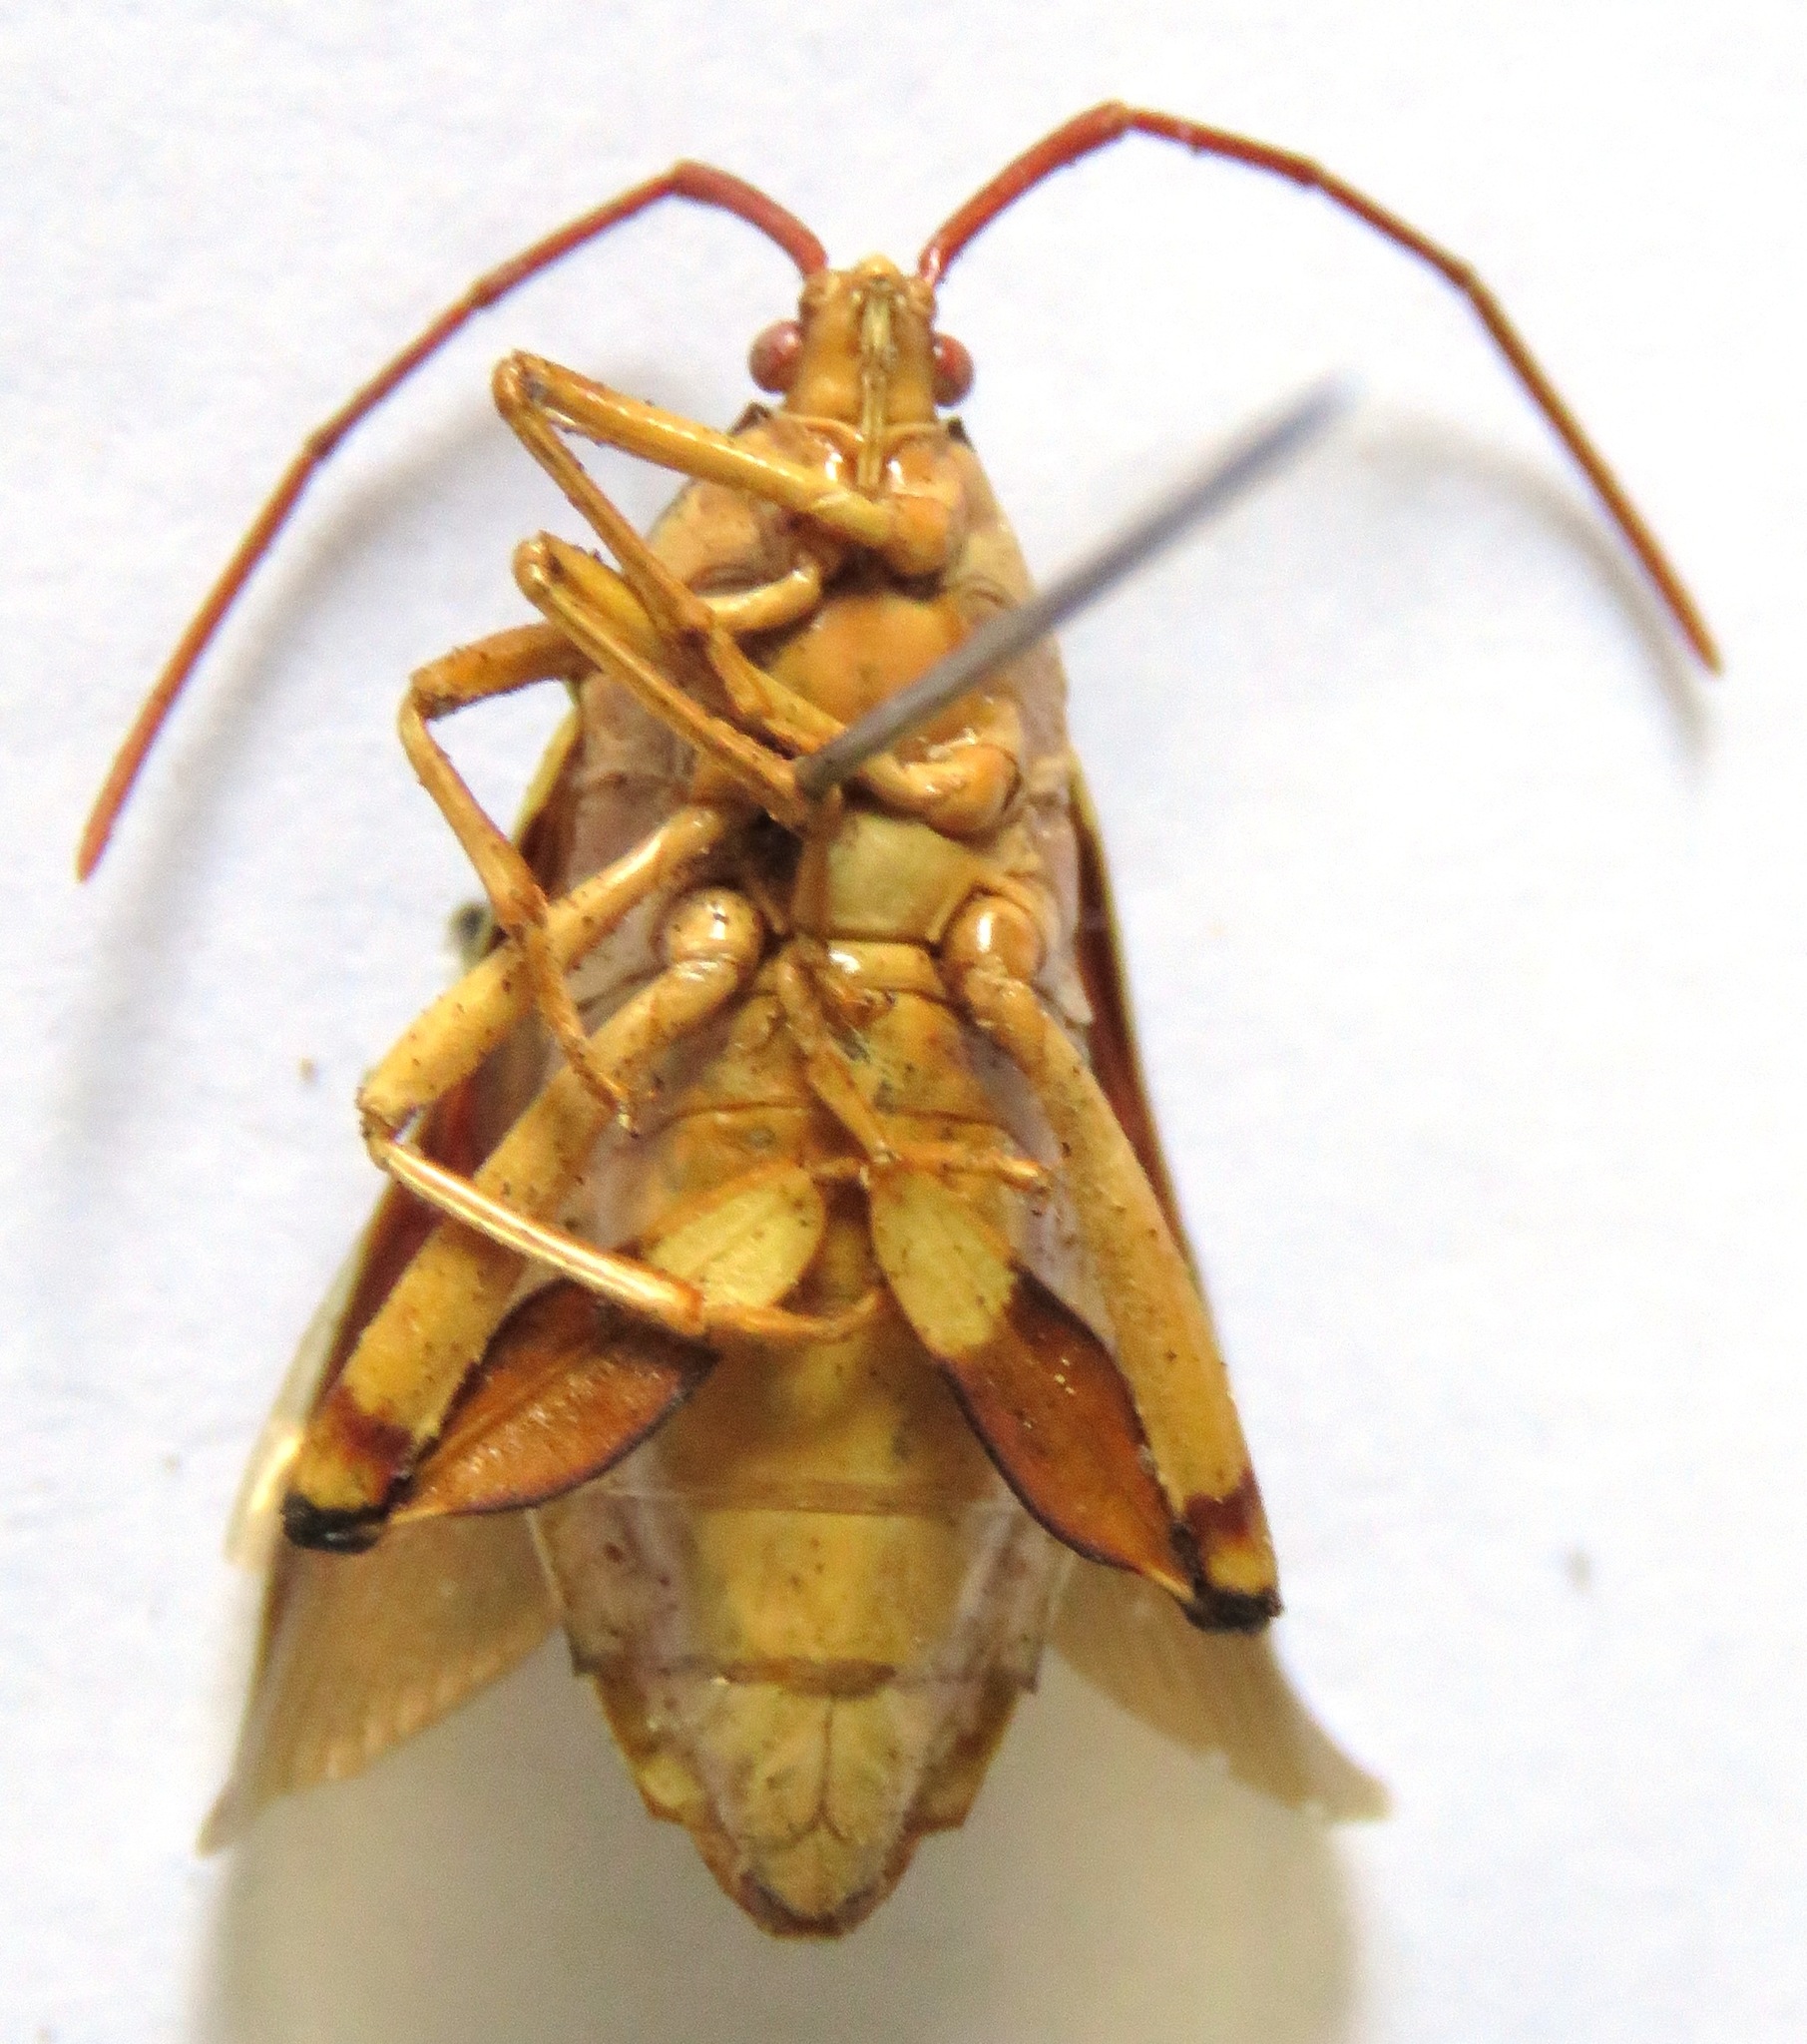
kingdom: Animalia
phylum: Arthropoda
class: Insecta
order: Hemiptera
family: Coreidae
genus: Melucha
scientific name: Melucha quinquelineata
